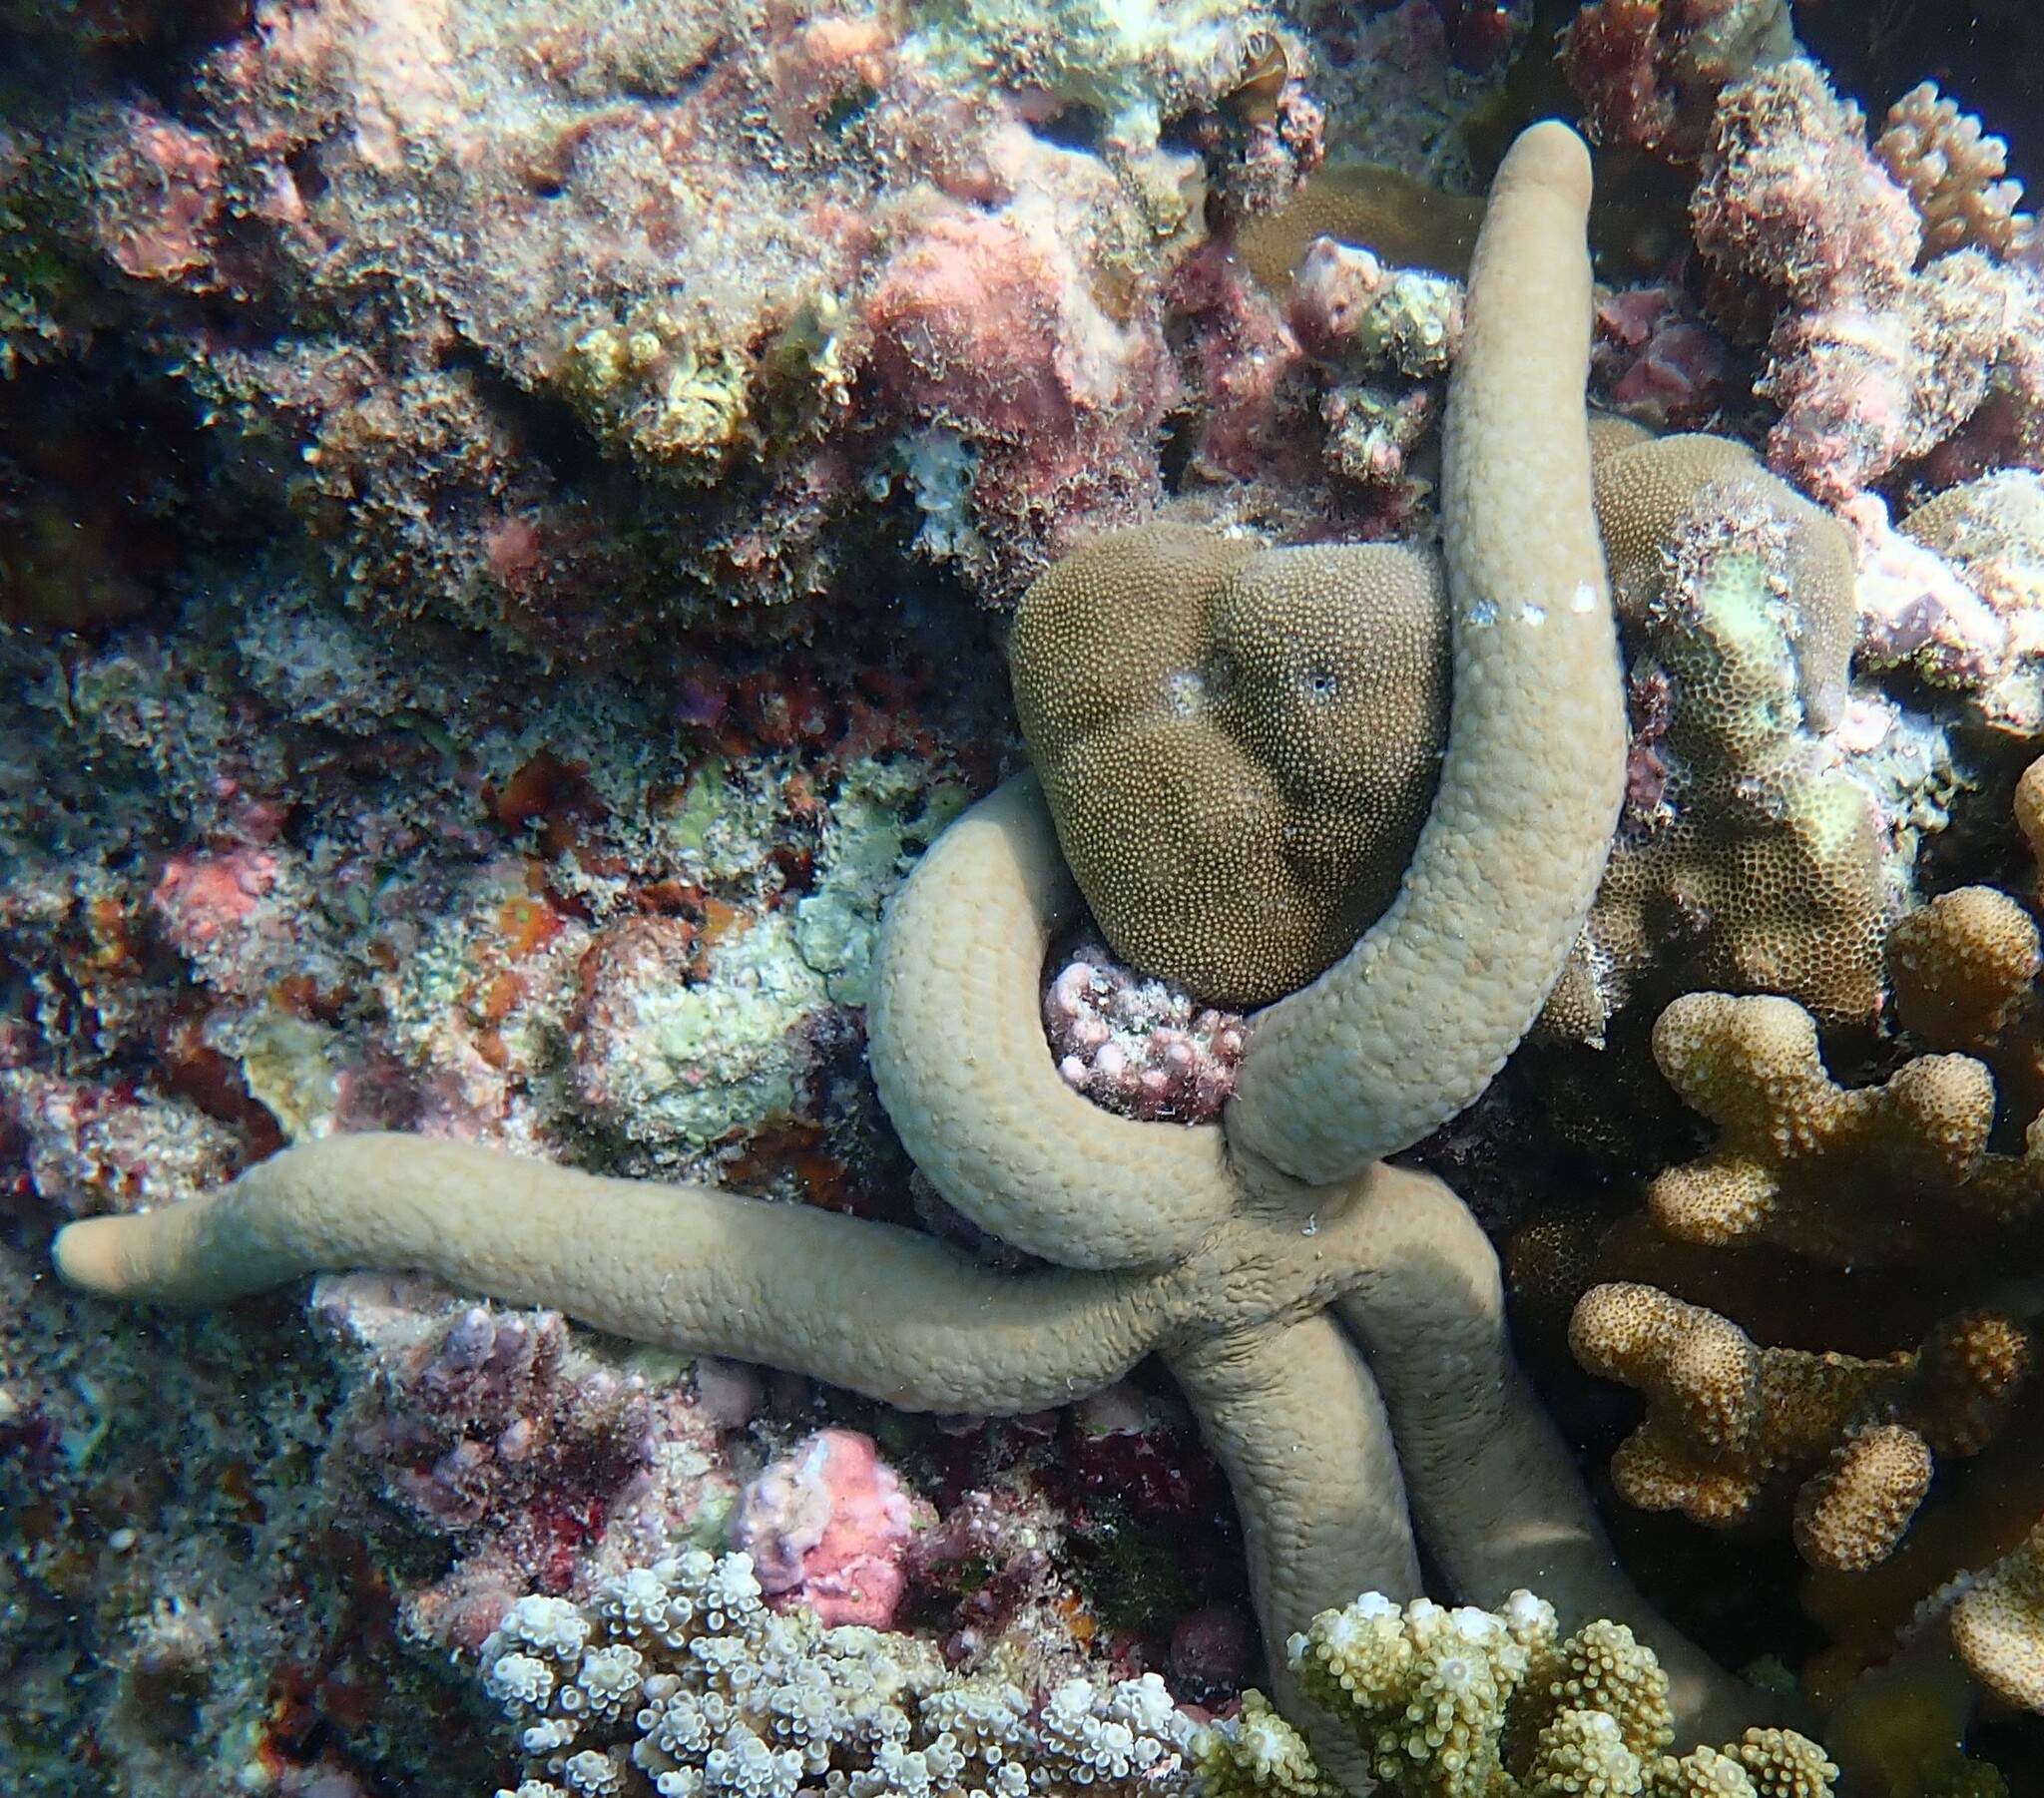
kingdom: Animalia
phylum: Echinodermata
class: Asteroidea
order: Valvatida
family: Ophidiasteridae
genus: Linckia
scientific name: Linckia guildingi
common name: Common comet star
